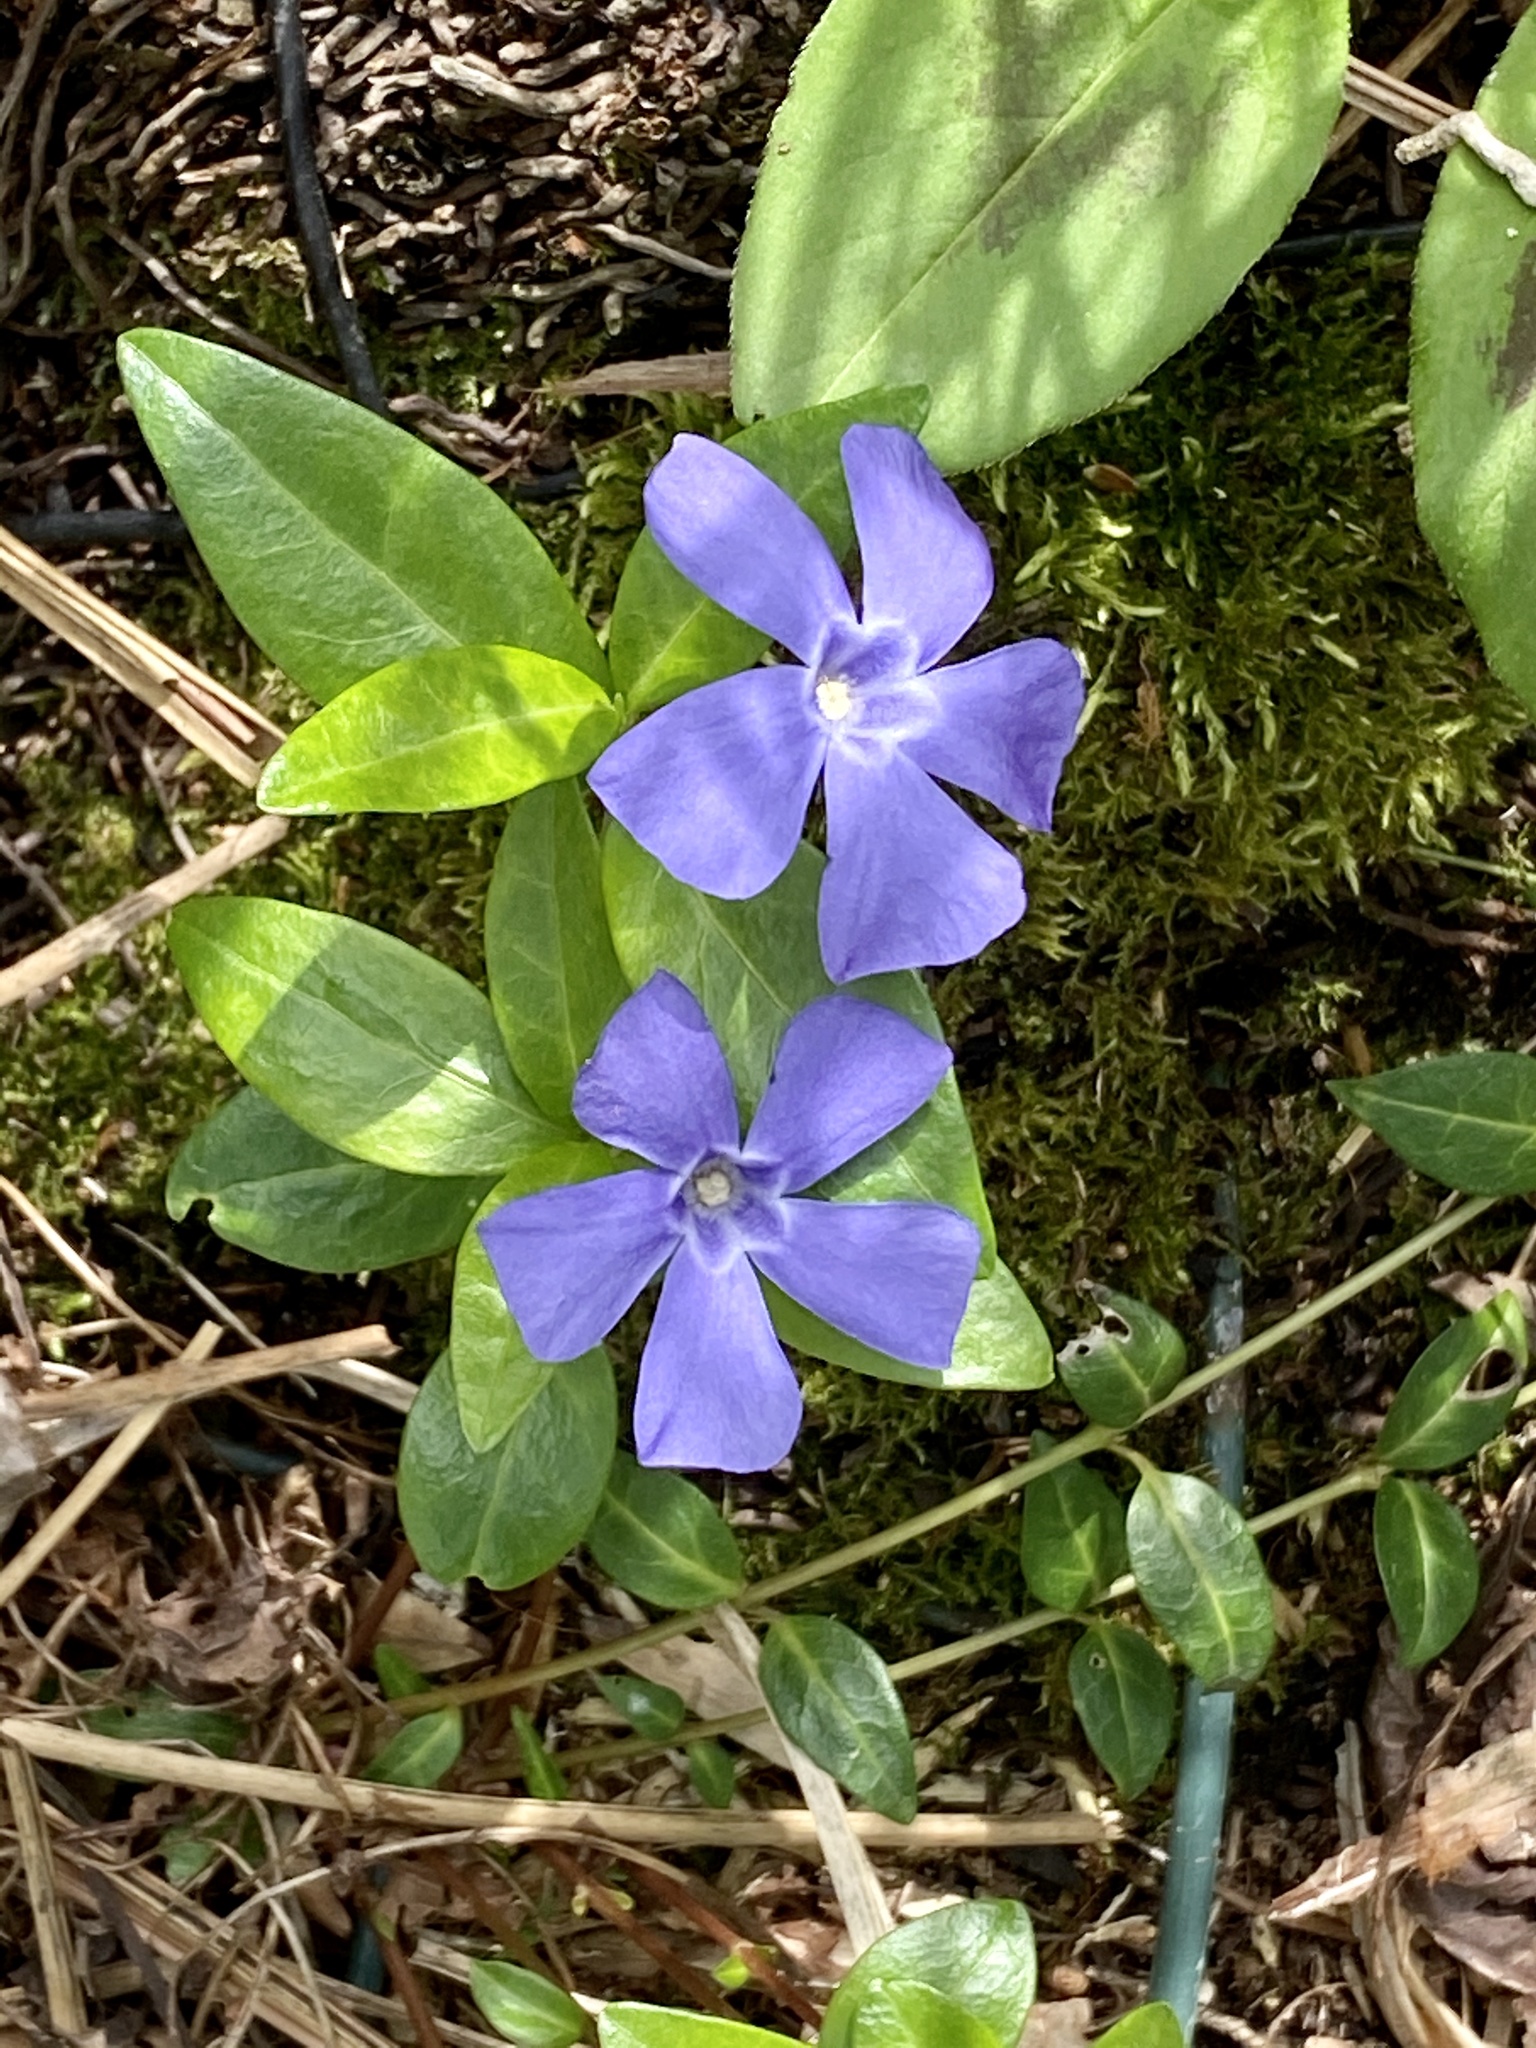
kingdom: Plantae
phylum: Tracheophyta
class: Magnoliopsida
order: Gentianales
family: Apocynaceae
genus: Vinca
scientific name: Vinca minor
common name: Lesser periwinkle
